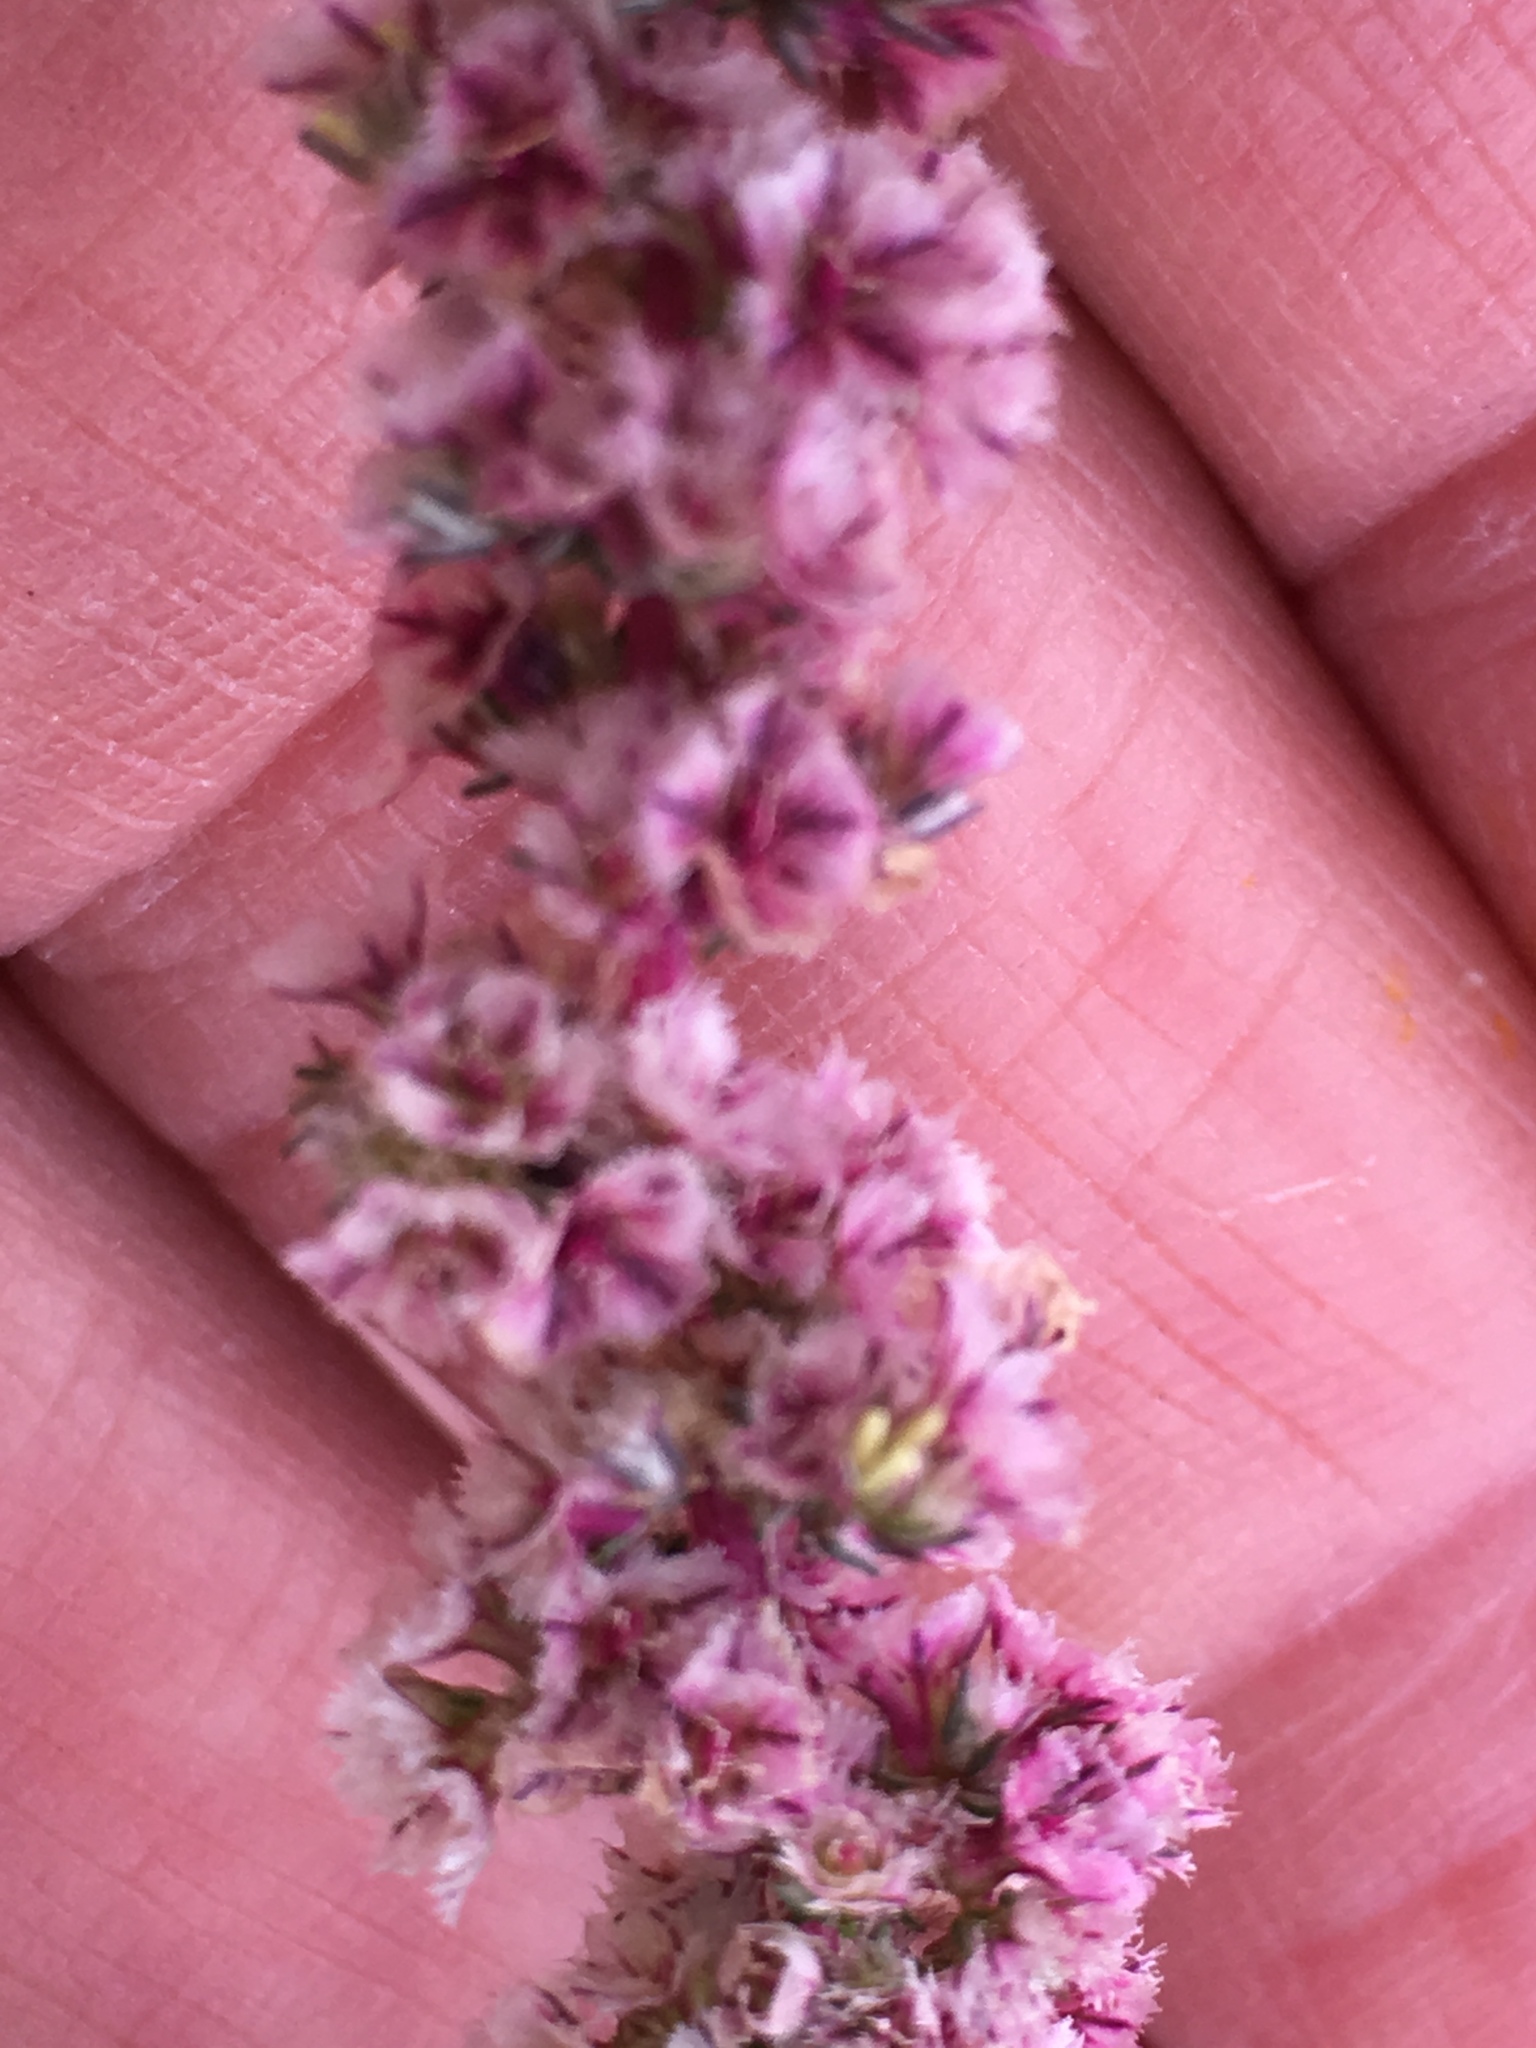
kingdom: Plantae
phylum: Tracheophyta
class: Magnoliopsida
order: Caryophyllales
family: Amaranthaceae
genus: Amaranthus
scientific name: Amaranthus fimbriatus
